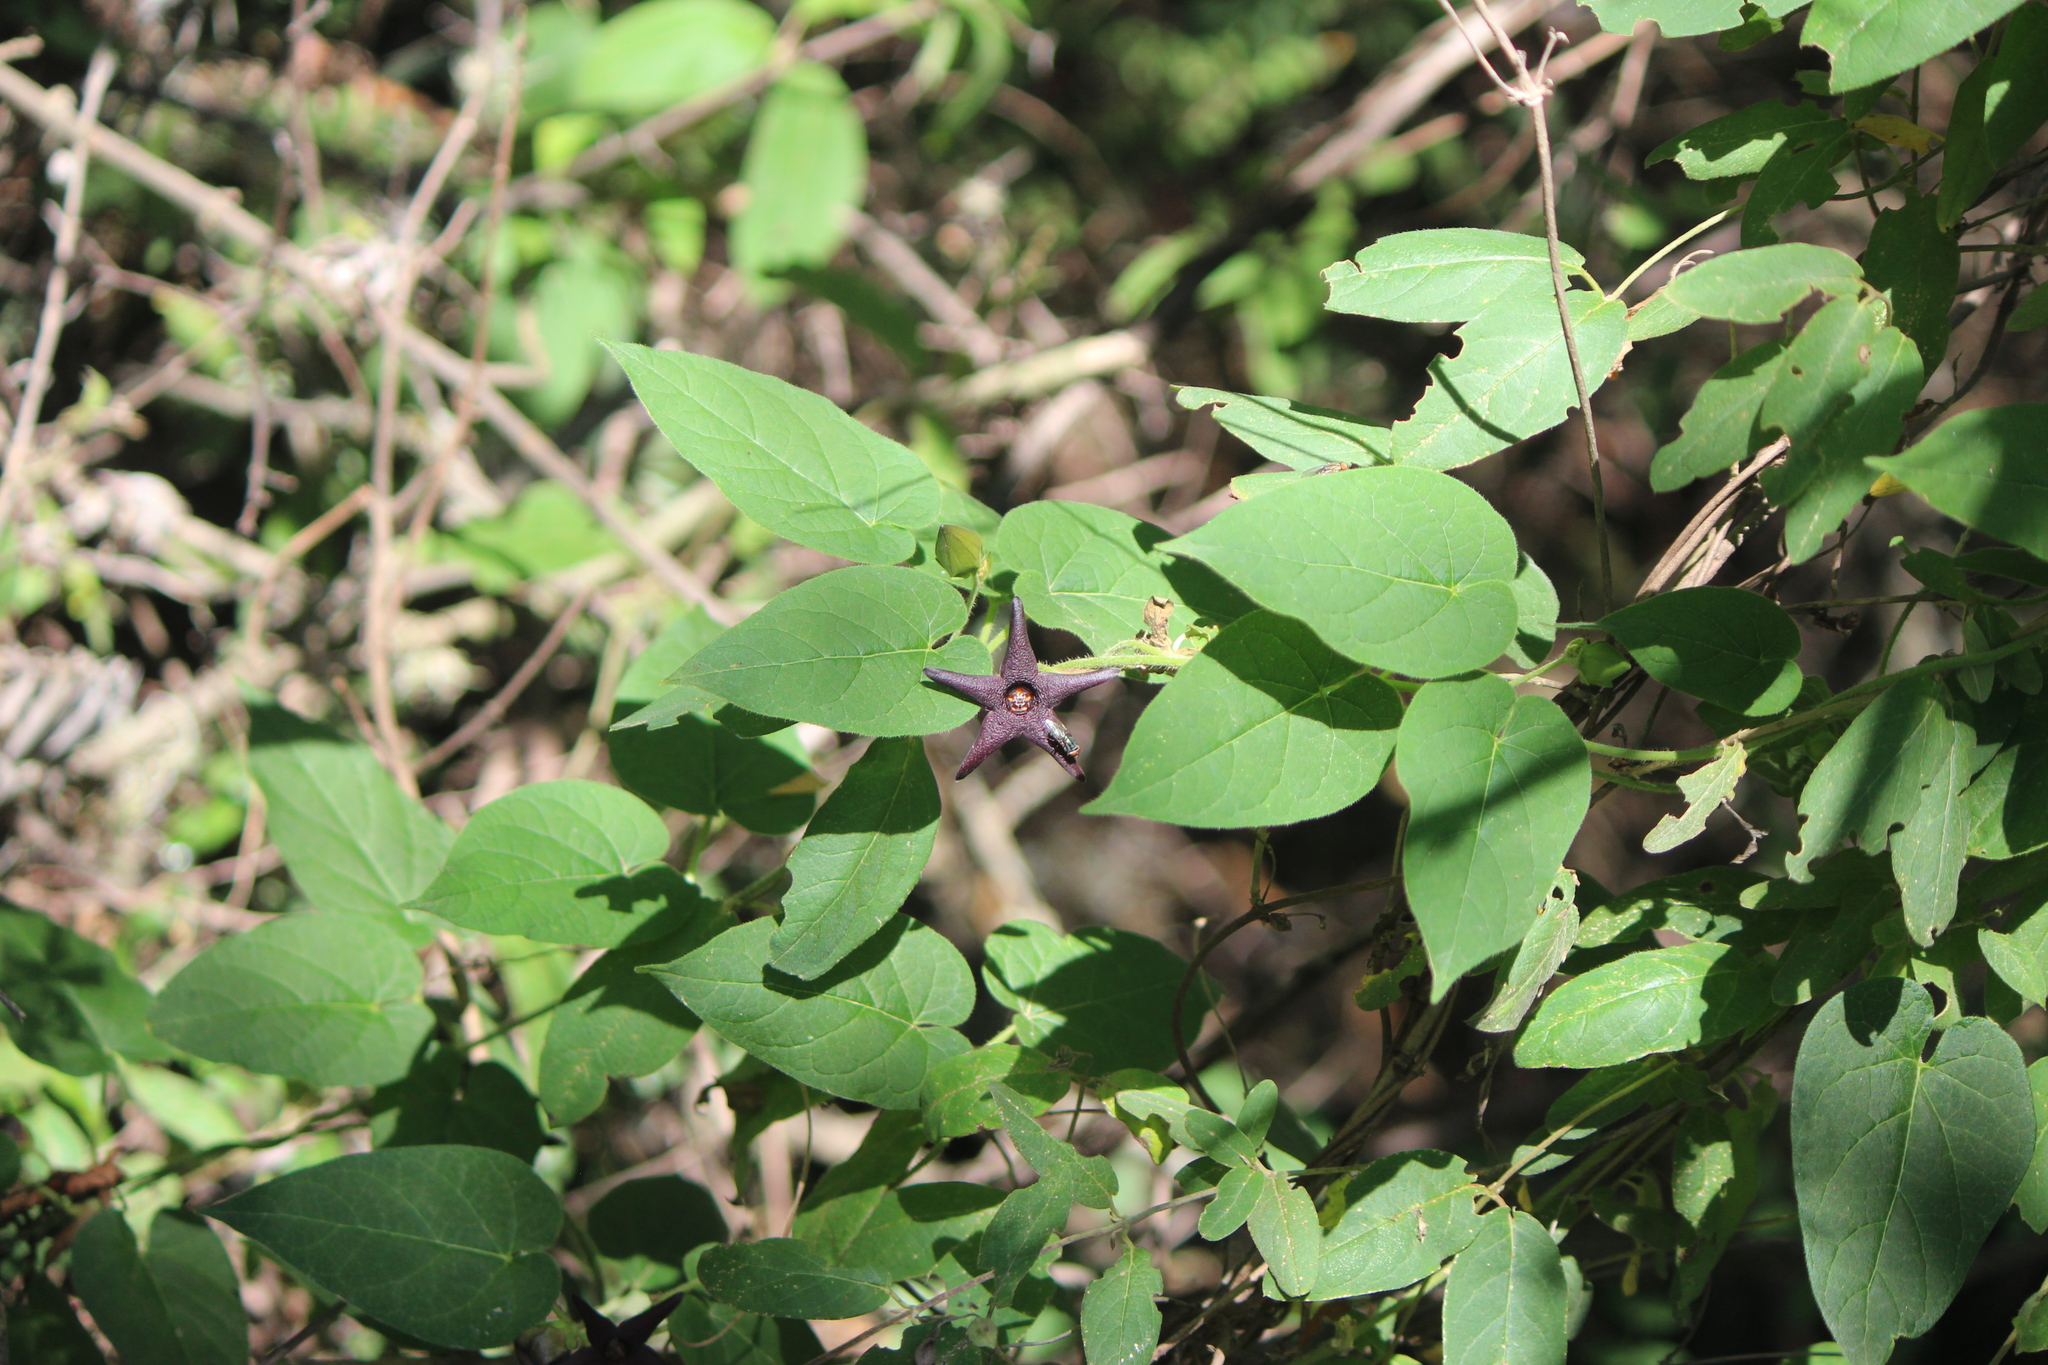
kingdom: Plantae
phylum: Tracheophyta
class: Magnoliopsida
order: Gentianales
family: Apocynaceae
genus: Matelea
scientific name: Matelea pilosa
